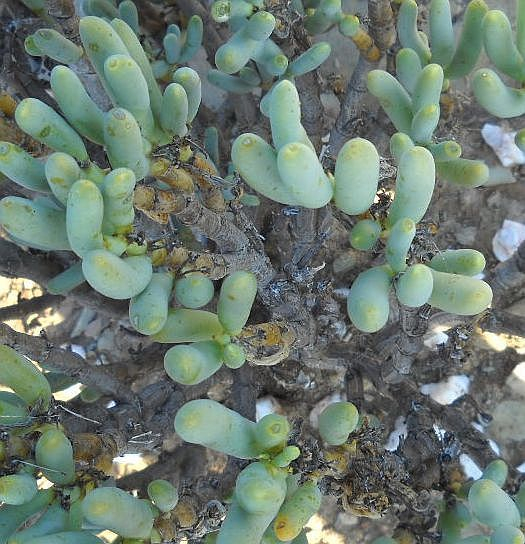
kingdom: Plantae
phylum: Tracheophyta
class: Magnoliopsida
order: Zygophyllales
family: Zygophyllaceae
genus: Augea
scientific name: Augea capensis
